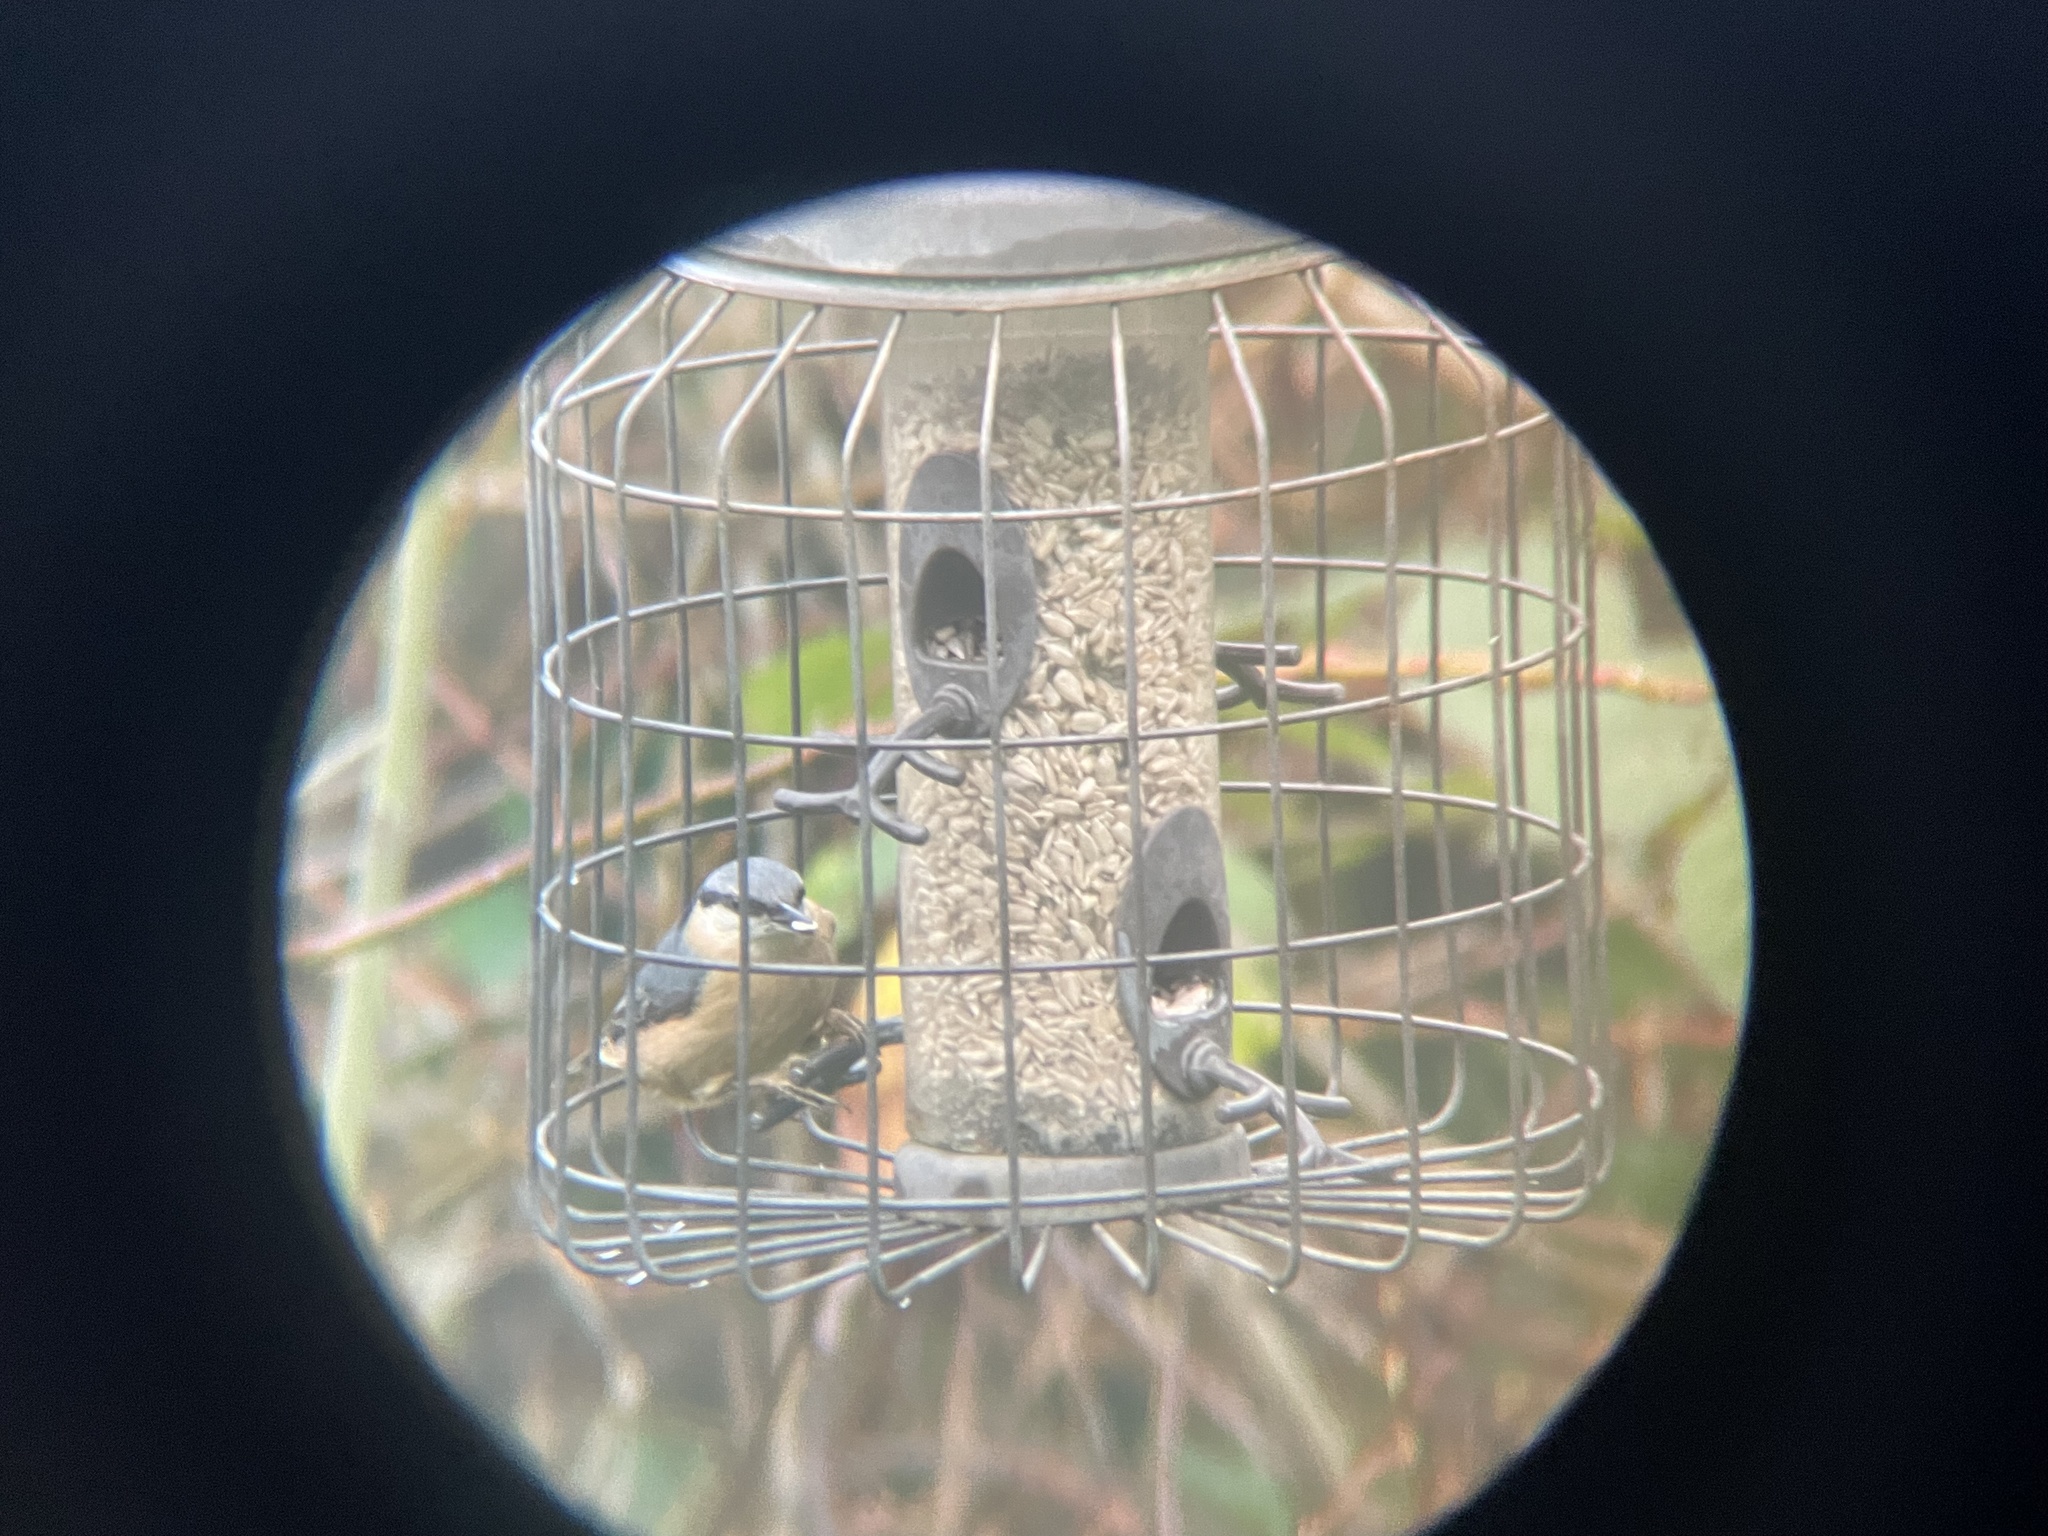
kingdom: Animalia
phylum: Chordata
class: Aves
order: Passeriformes
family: Sittidae
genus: Sitta
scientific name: Sitta europaea
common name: Eurasian nuthatch
